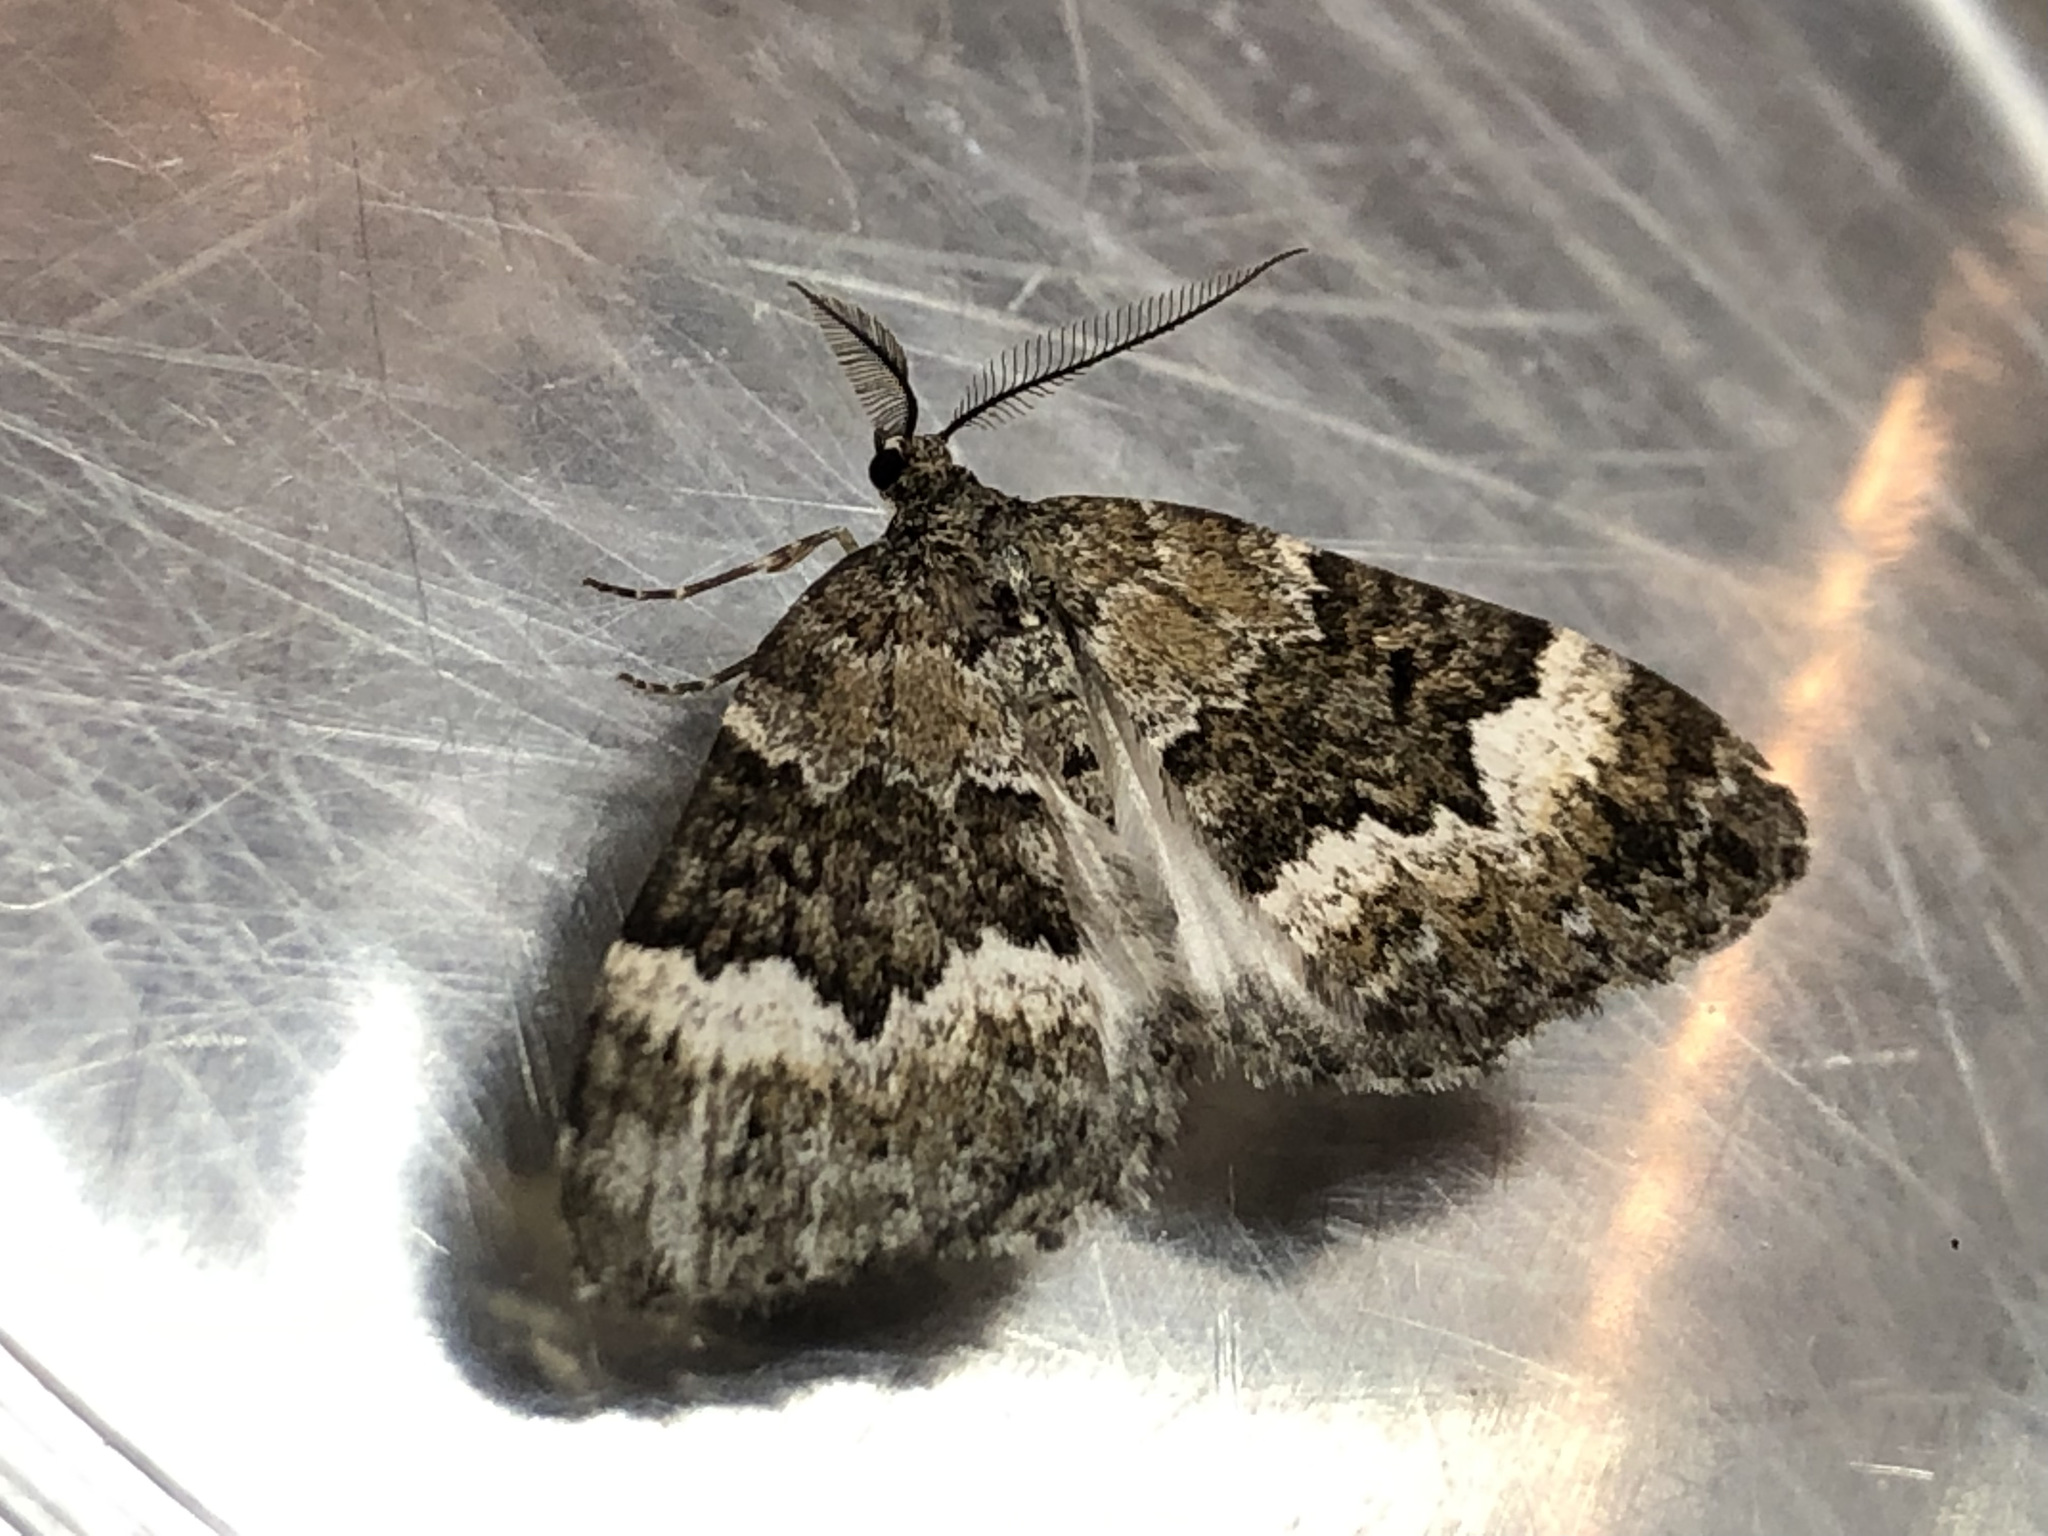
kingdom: Animalia
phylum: Arthropoda
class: Insecta
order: Lepidoptera
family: Geometridae
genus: Colostygia
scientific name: Colostygia turbata
